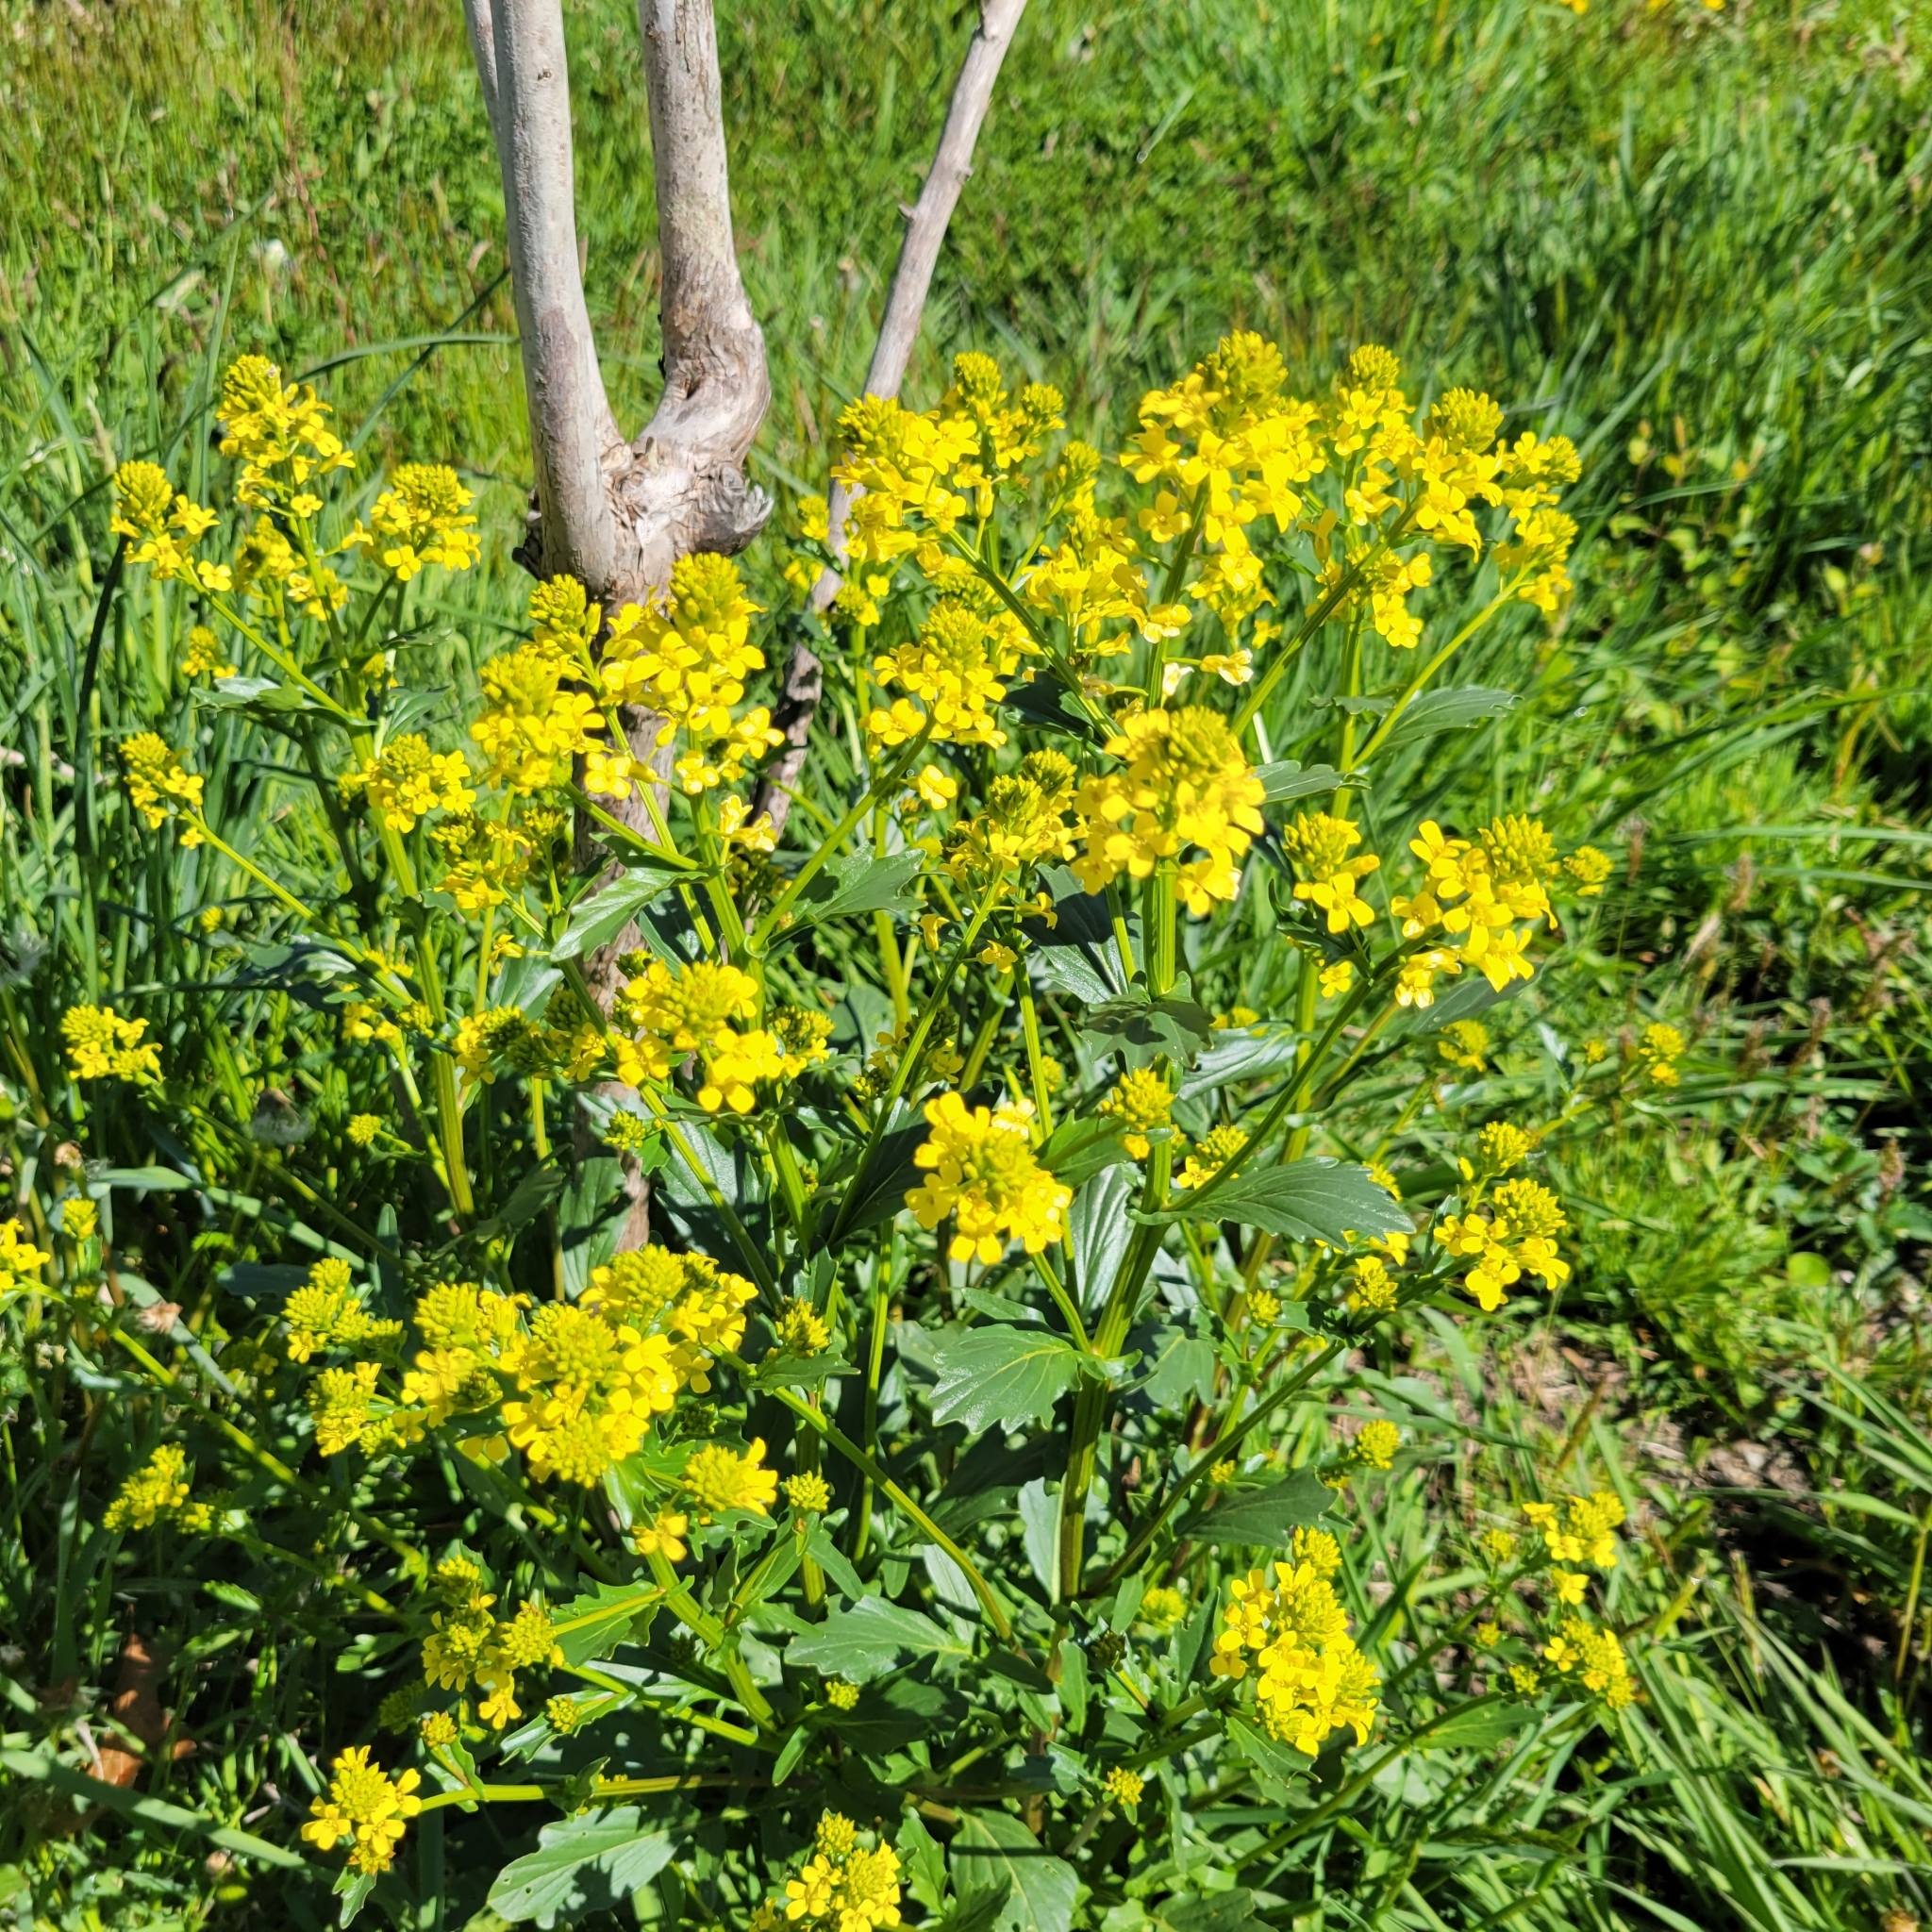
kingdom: Plantae
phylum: Tracheophyta
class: Magnoliopsida
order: Brassicales
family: Brassicaceae
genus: Barbarea
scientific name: Barbarea vulgaris
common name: Cressy-greens
